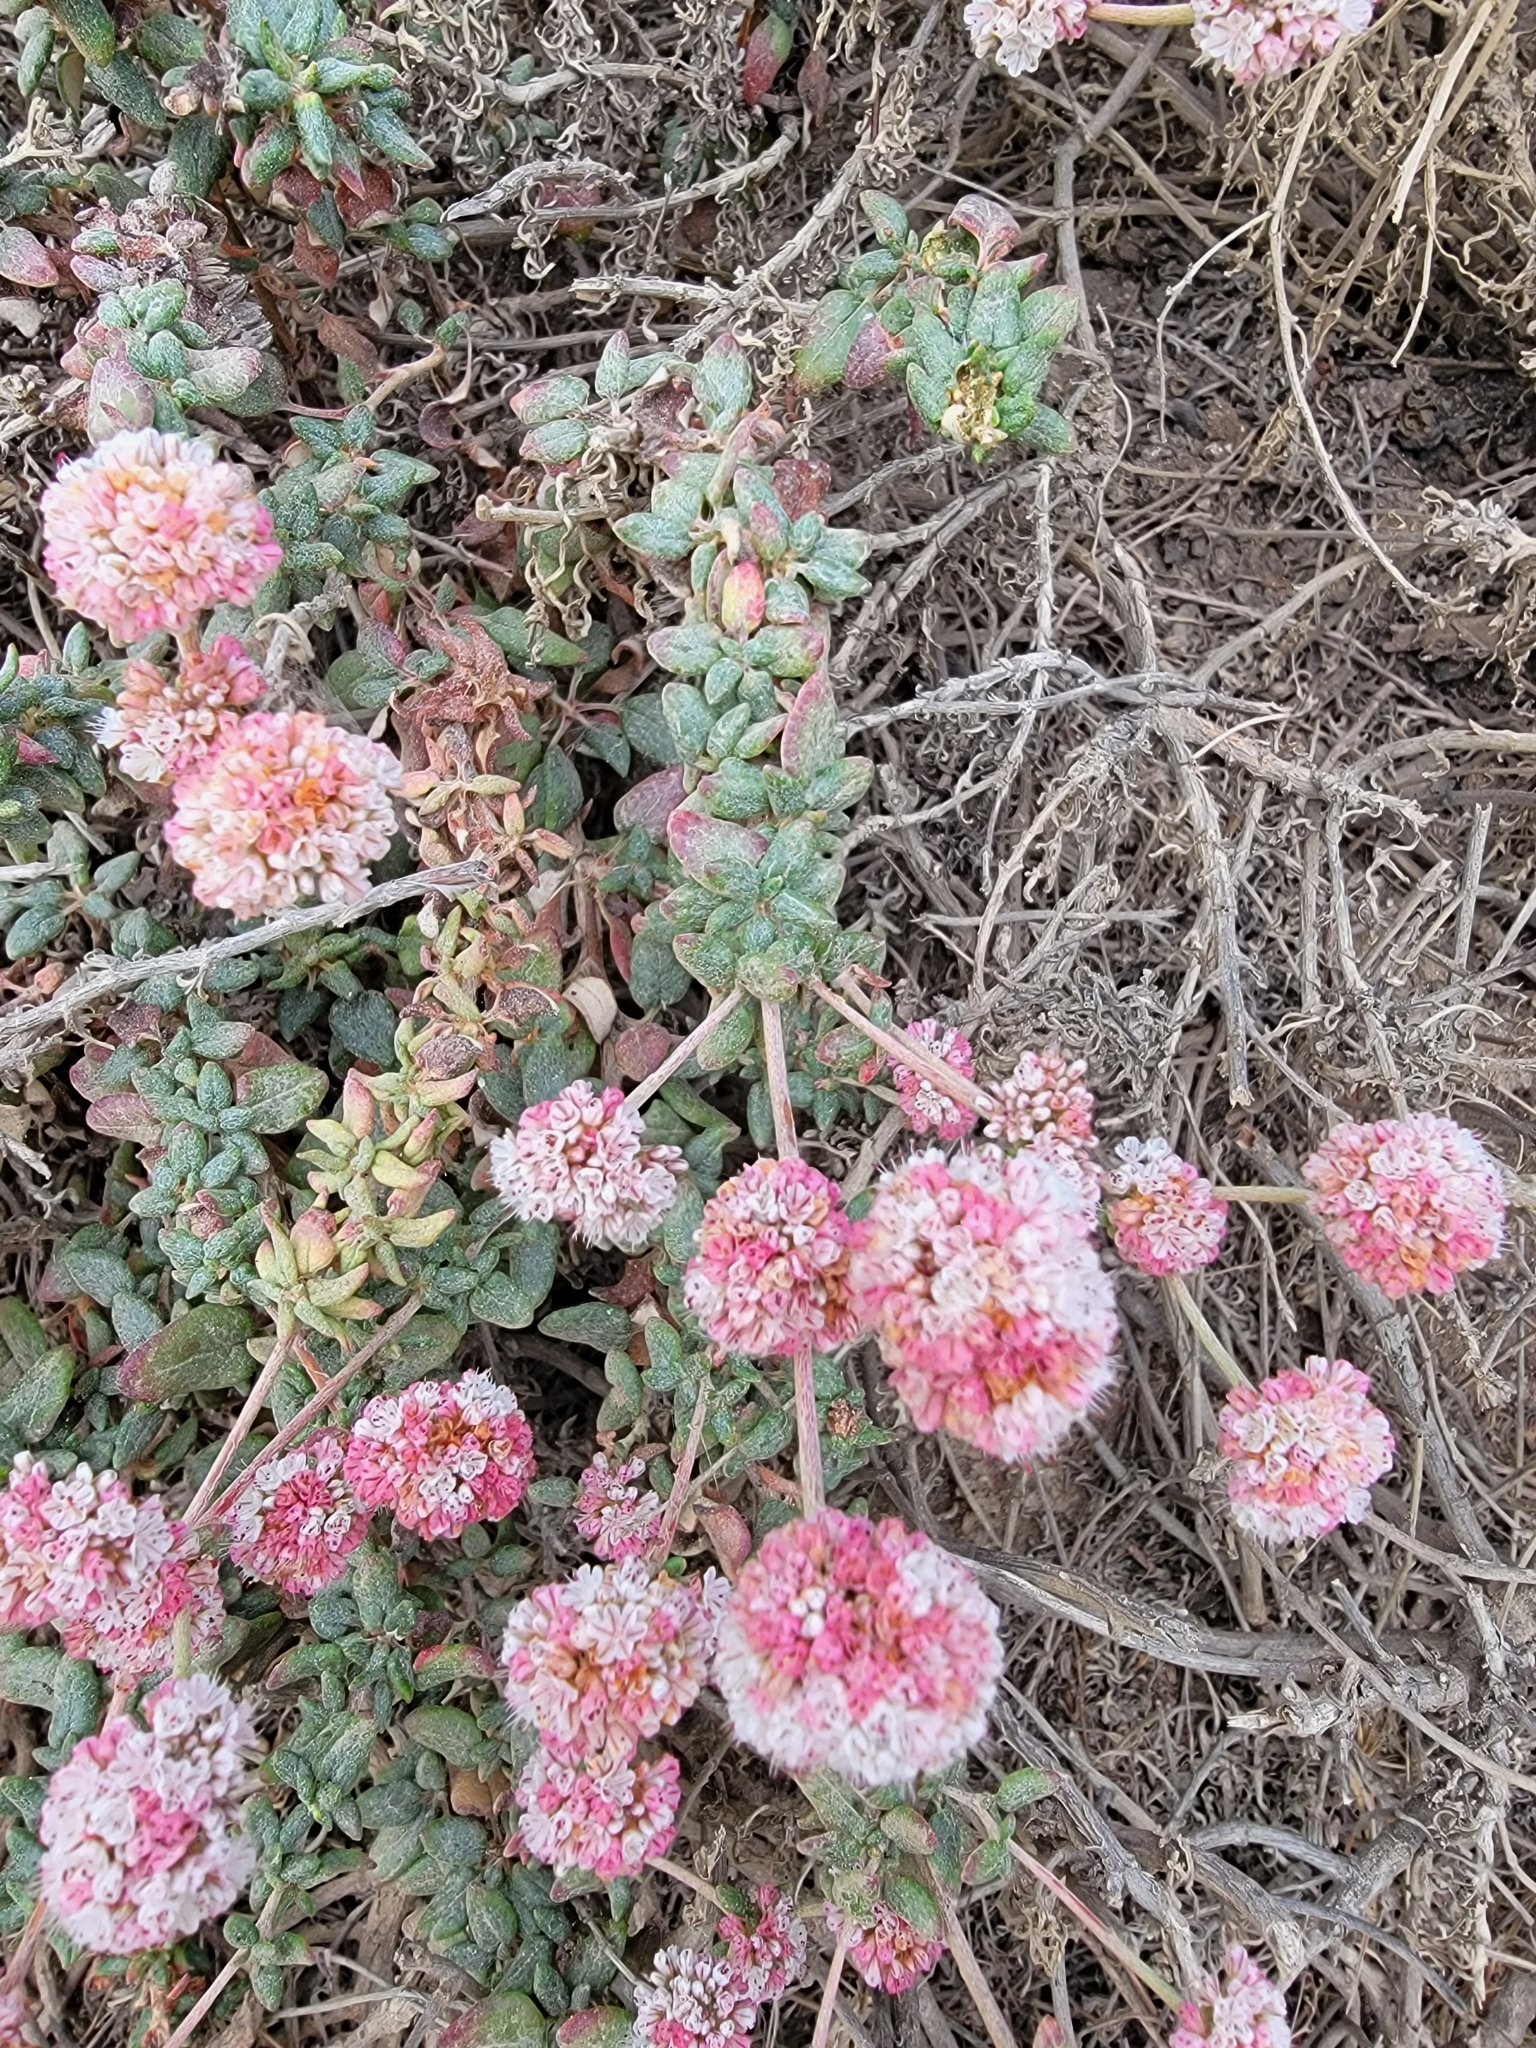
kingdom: Plantae
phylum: Tracheophyta
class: Magnoliopsida
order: Caryophyllales
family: Polygonaceae
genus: Eriogonum
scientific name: Eriogonum parvifolium
